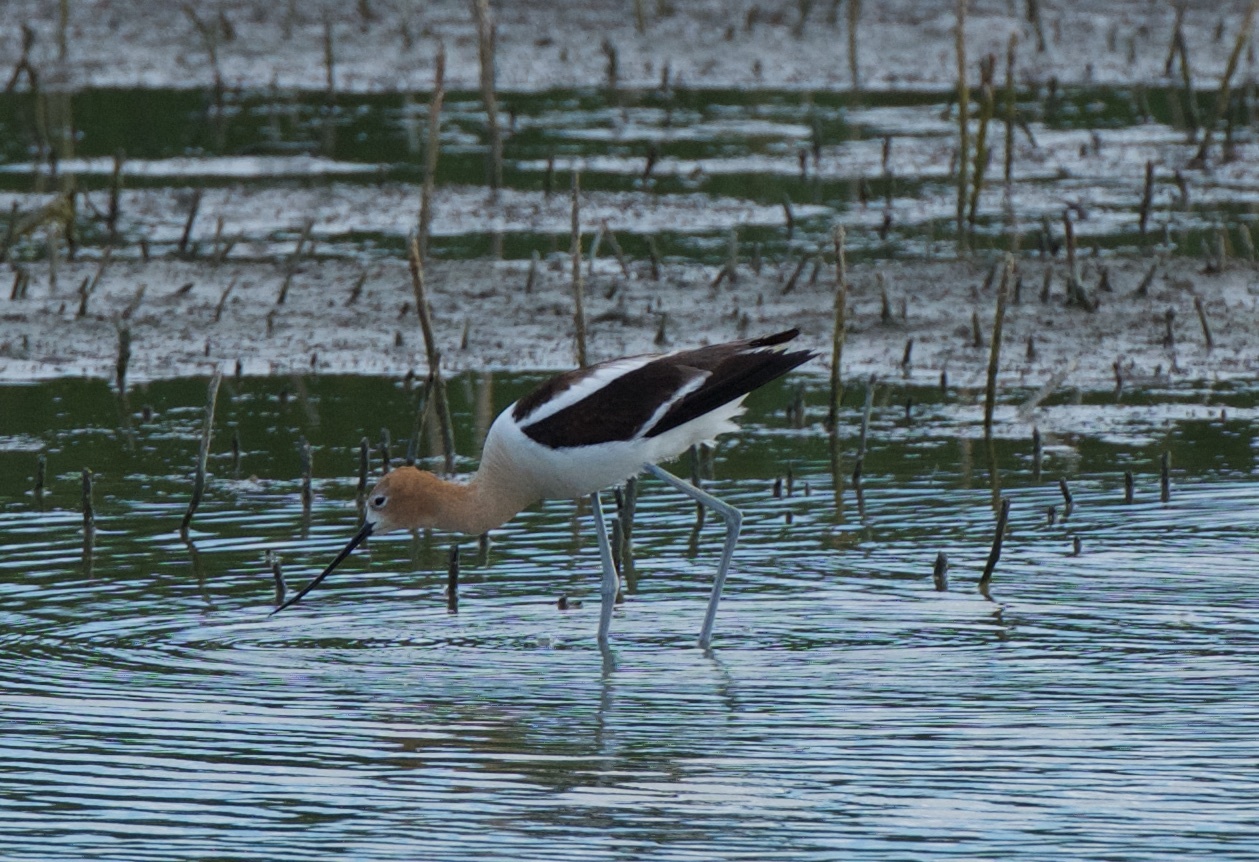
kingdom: Animalia
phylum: Chordata
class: Aves
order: Charadriiformes
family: Recurvirostridae
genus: Recurvirostra
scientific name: Recurvirostra americana
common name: American avocet
